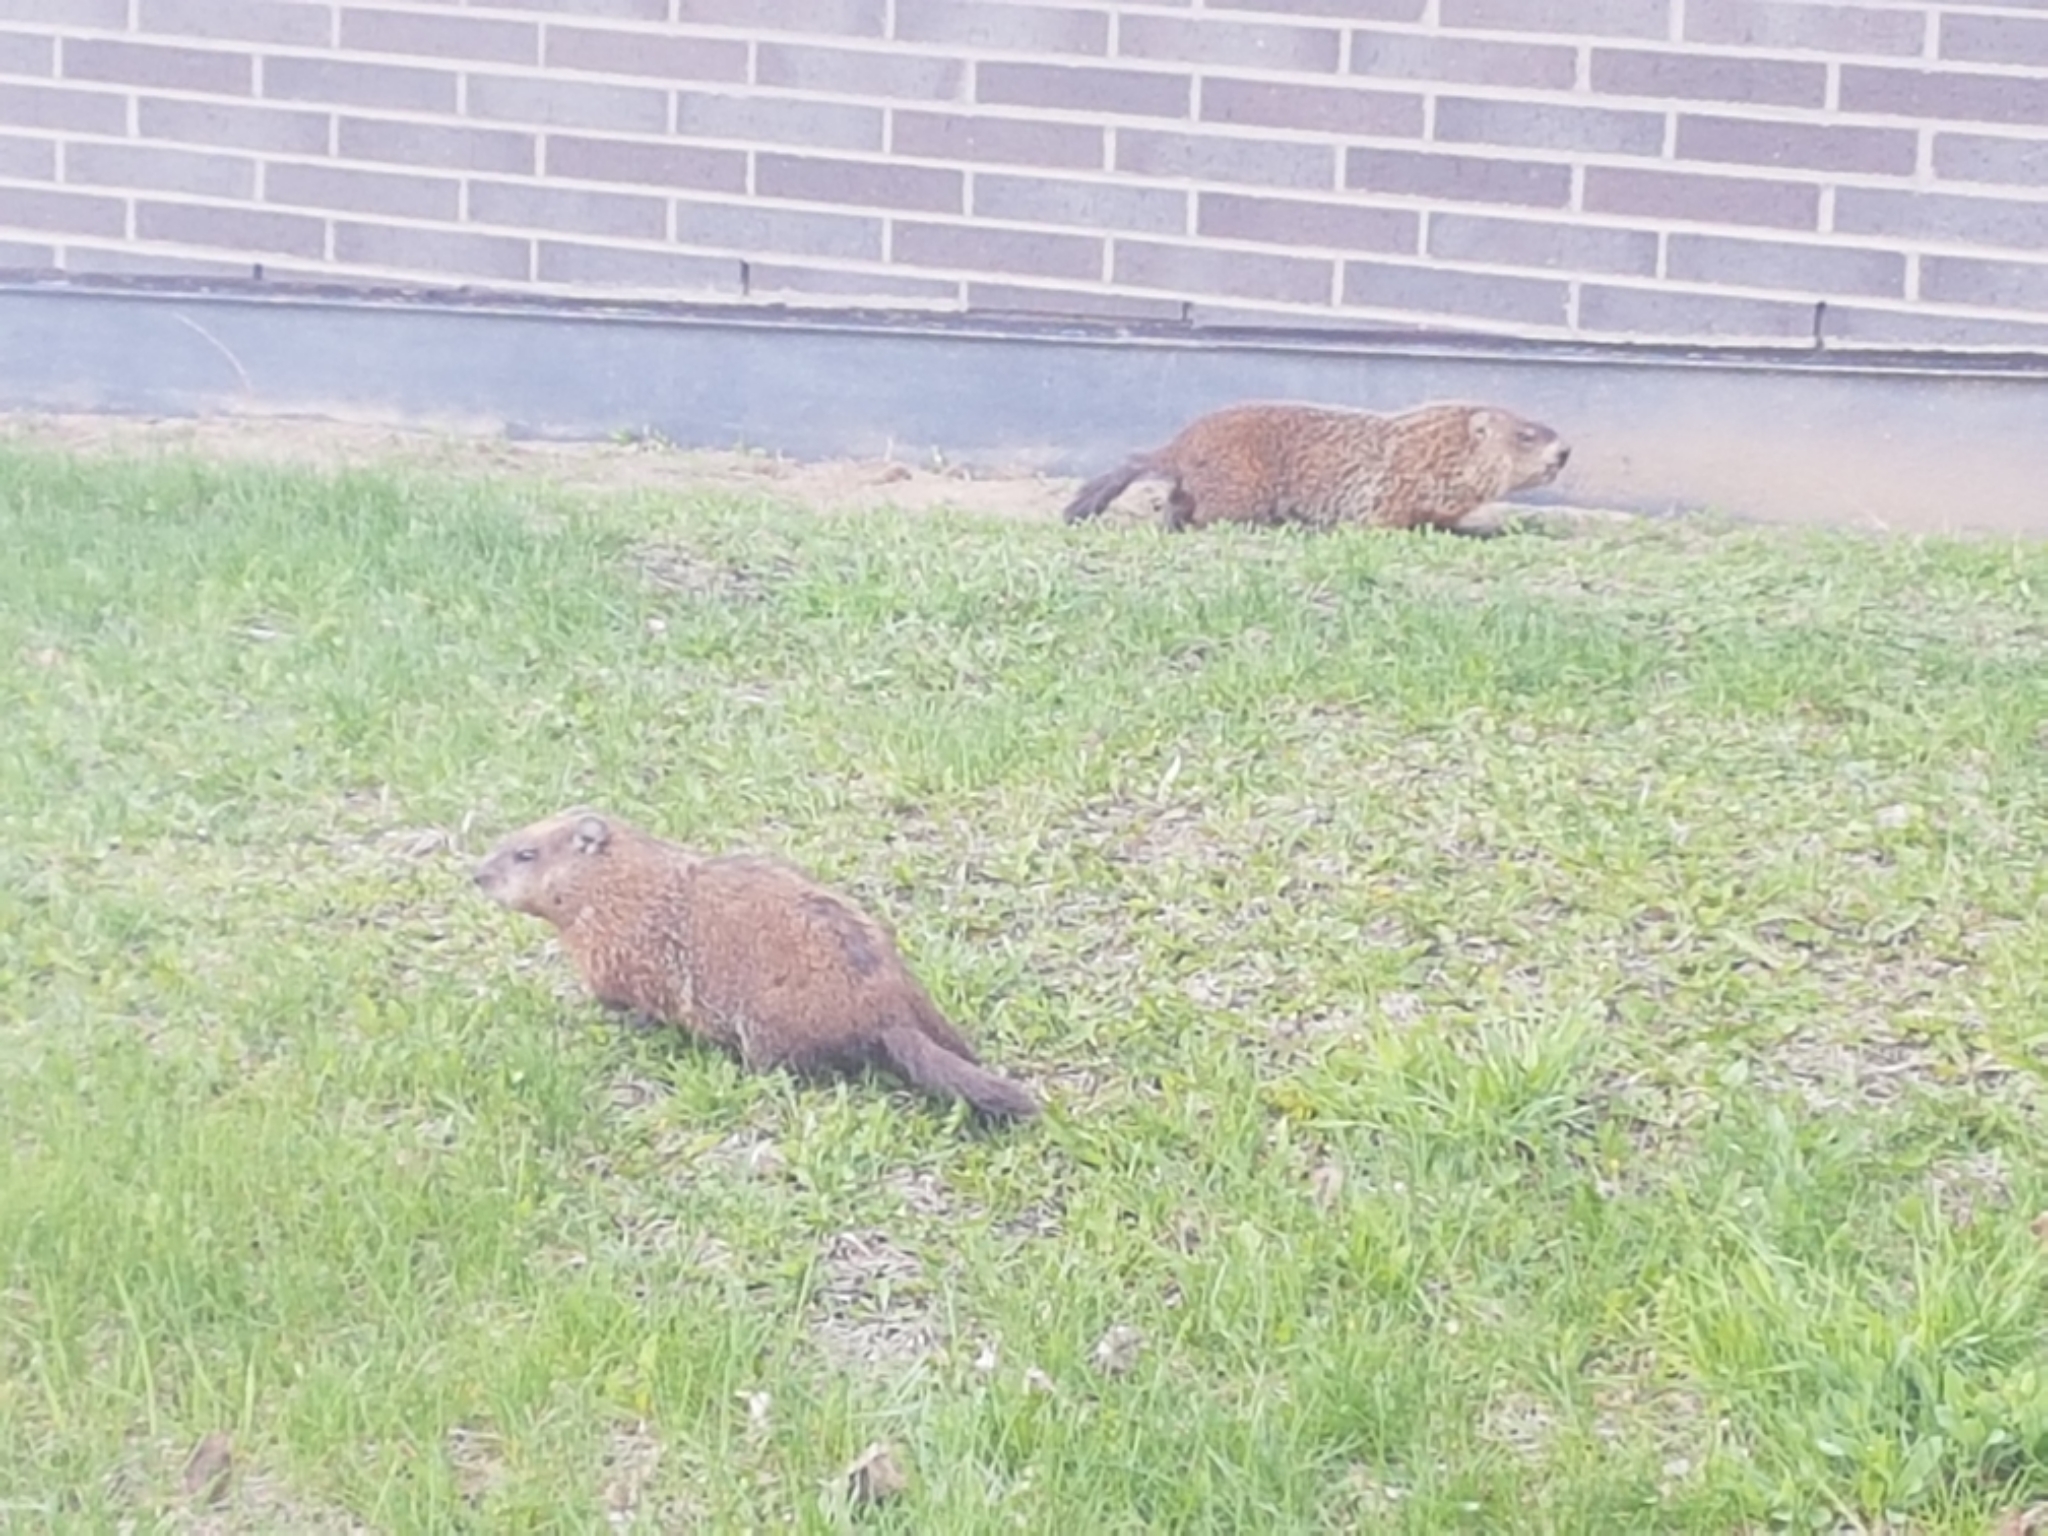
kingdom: Animalia
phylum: Chordata
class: Mammalia
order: Rodentia
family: Sciuridae
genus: Marmota
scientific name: Marmota monax
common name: Groundhog
